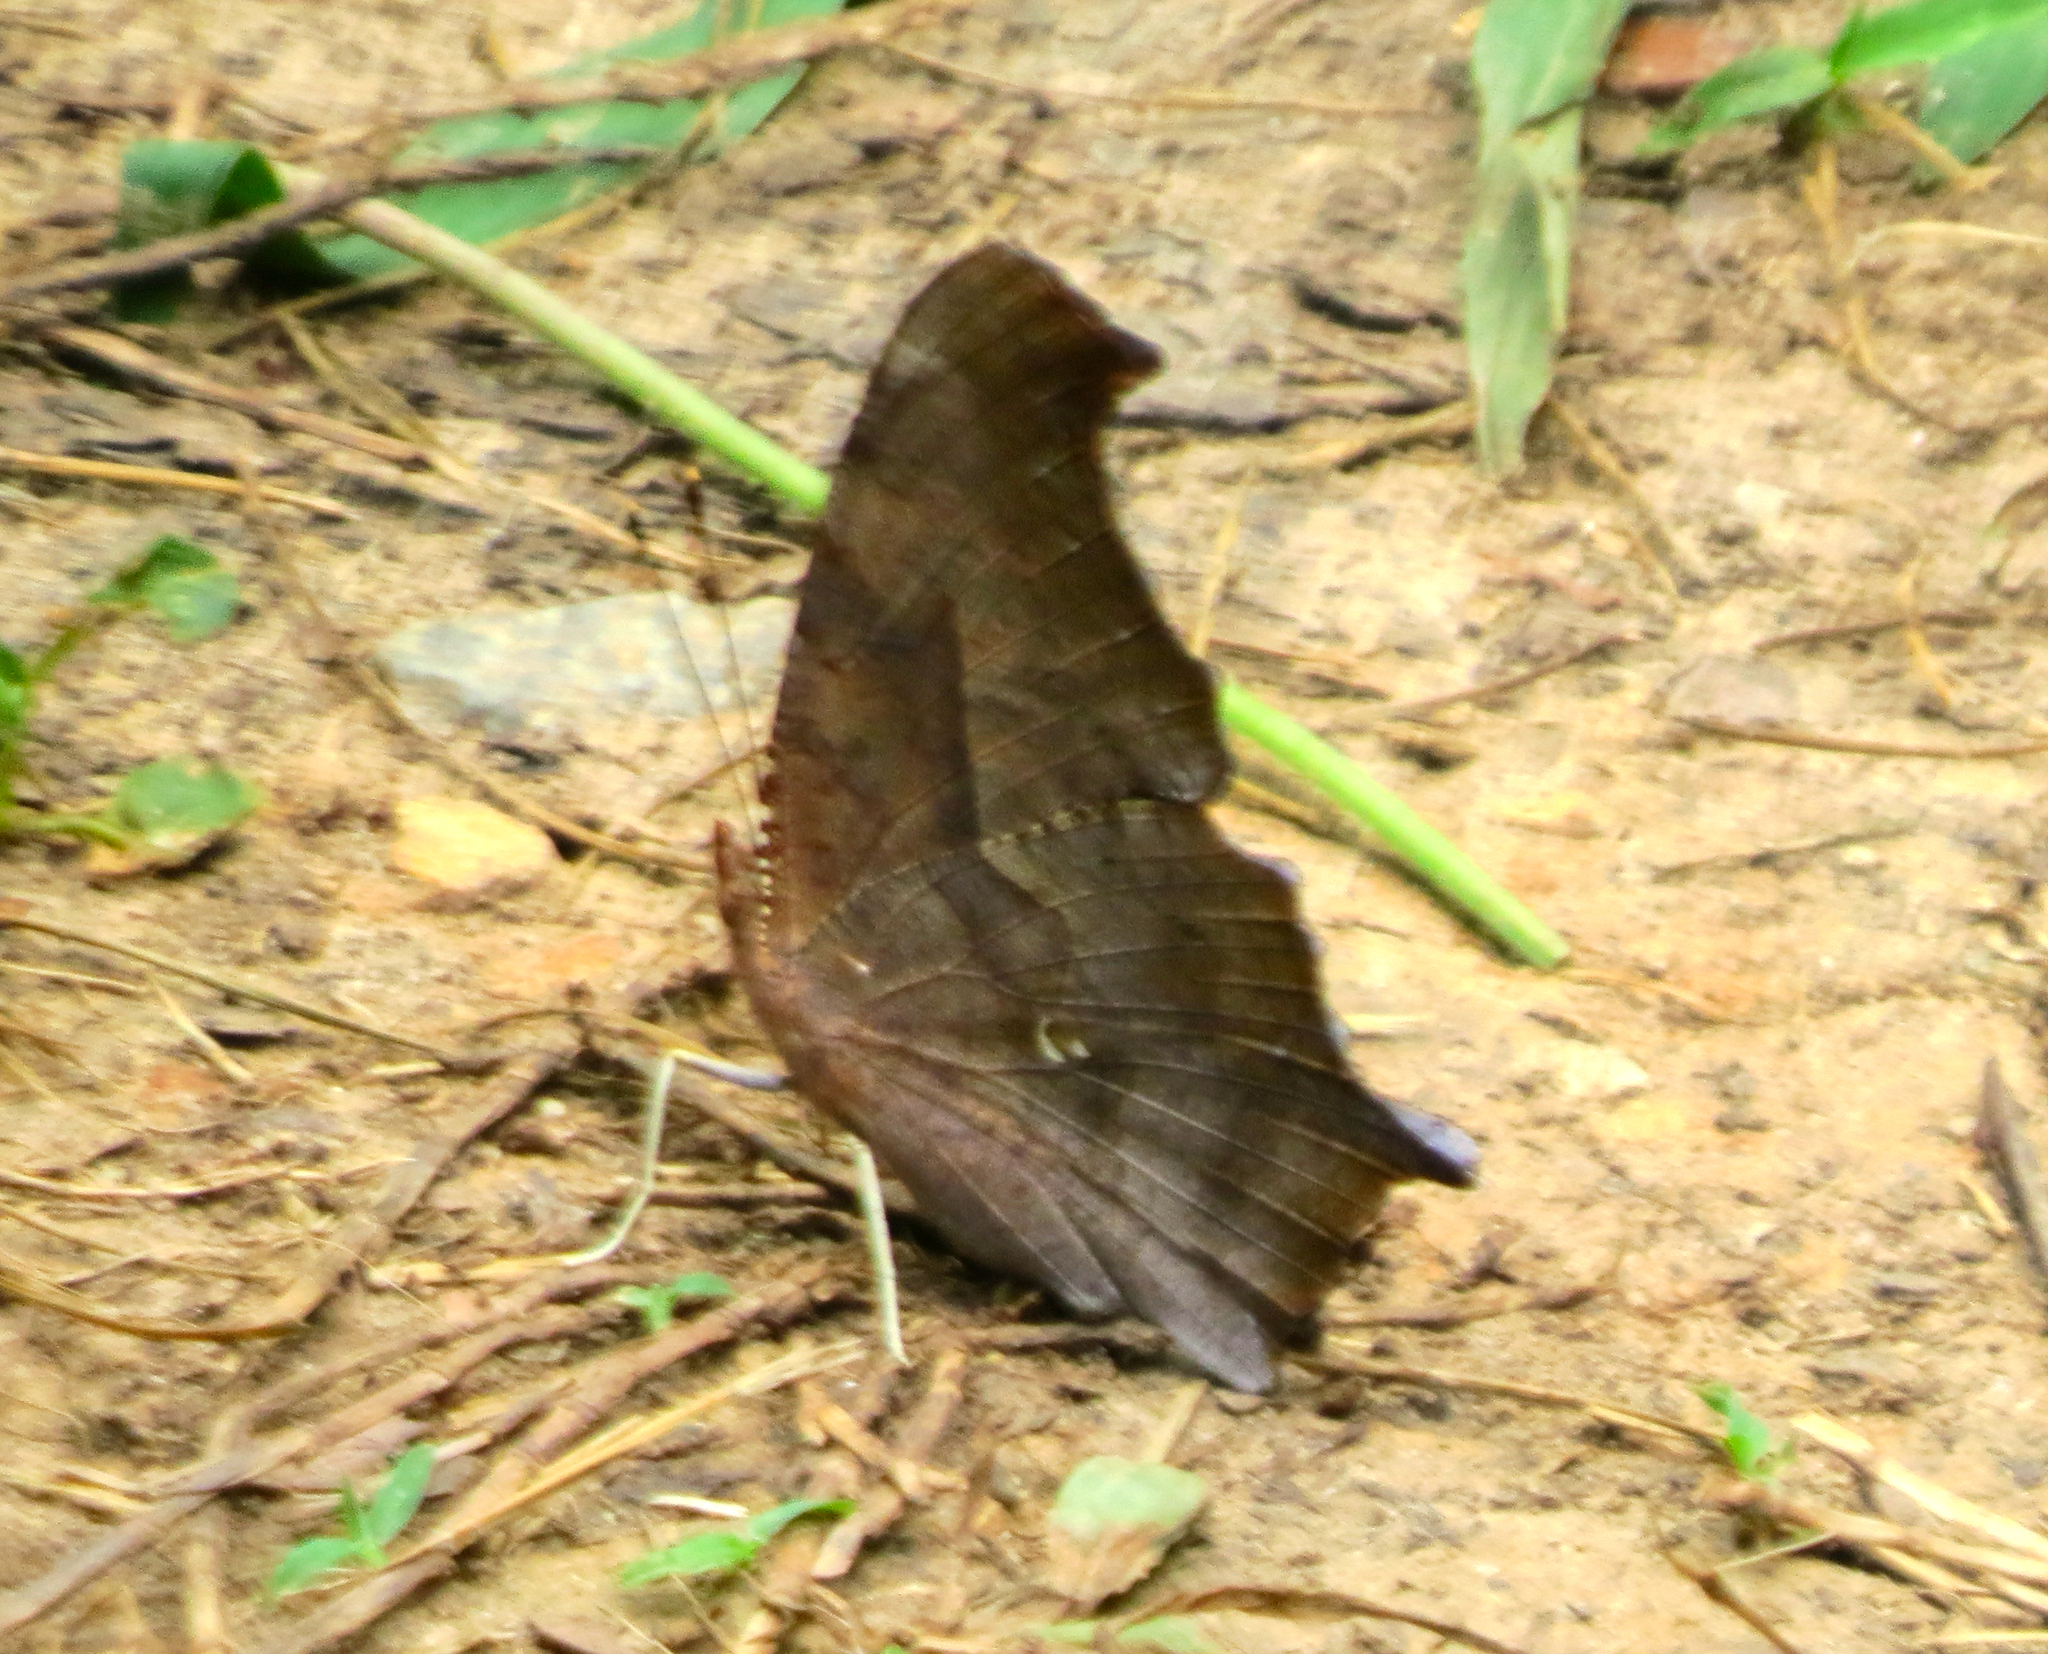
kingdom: Animalia
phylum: Arthropoda
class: Insecta
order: Lepidoptera
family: Nymphalidae
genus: Polygonia
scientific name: Polygonia interrogationis
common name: Question mark
